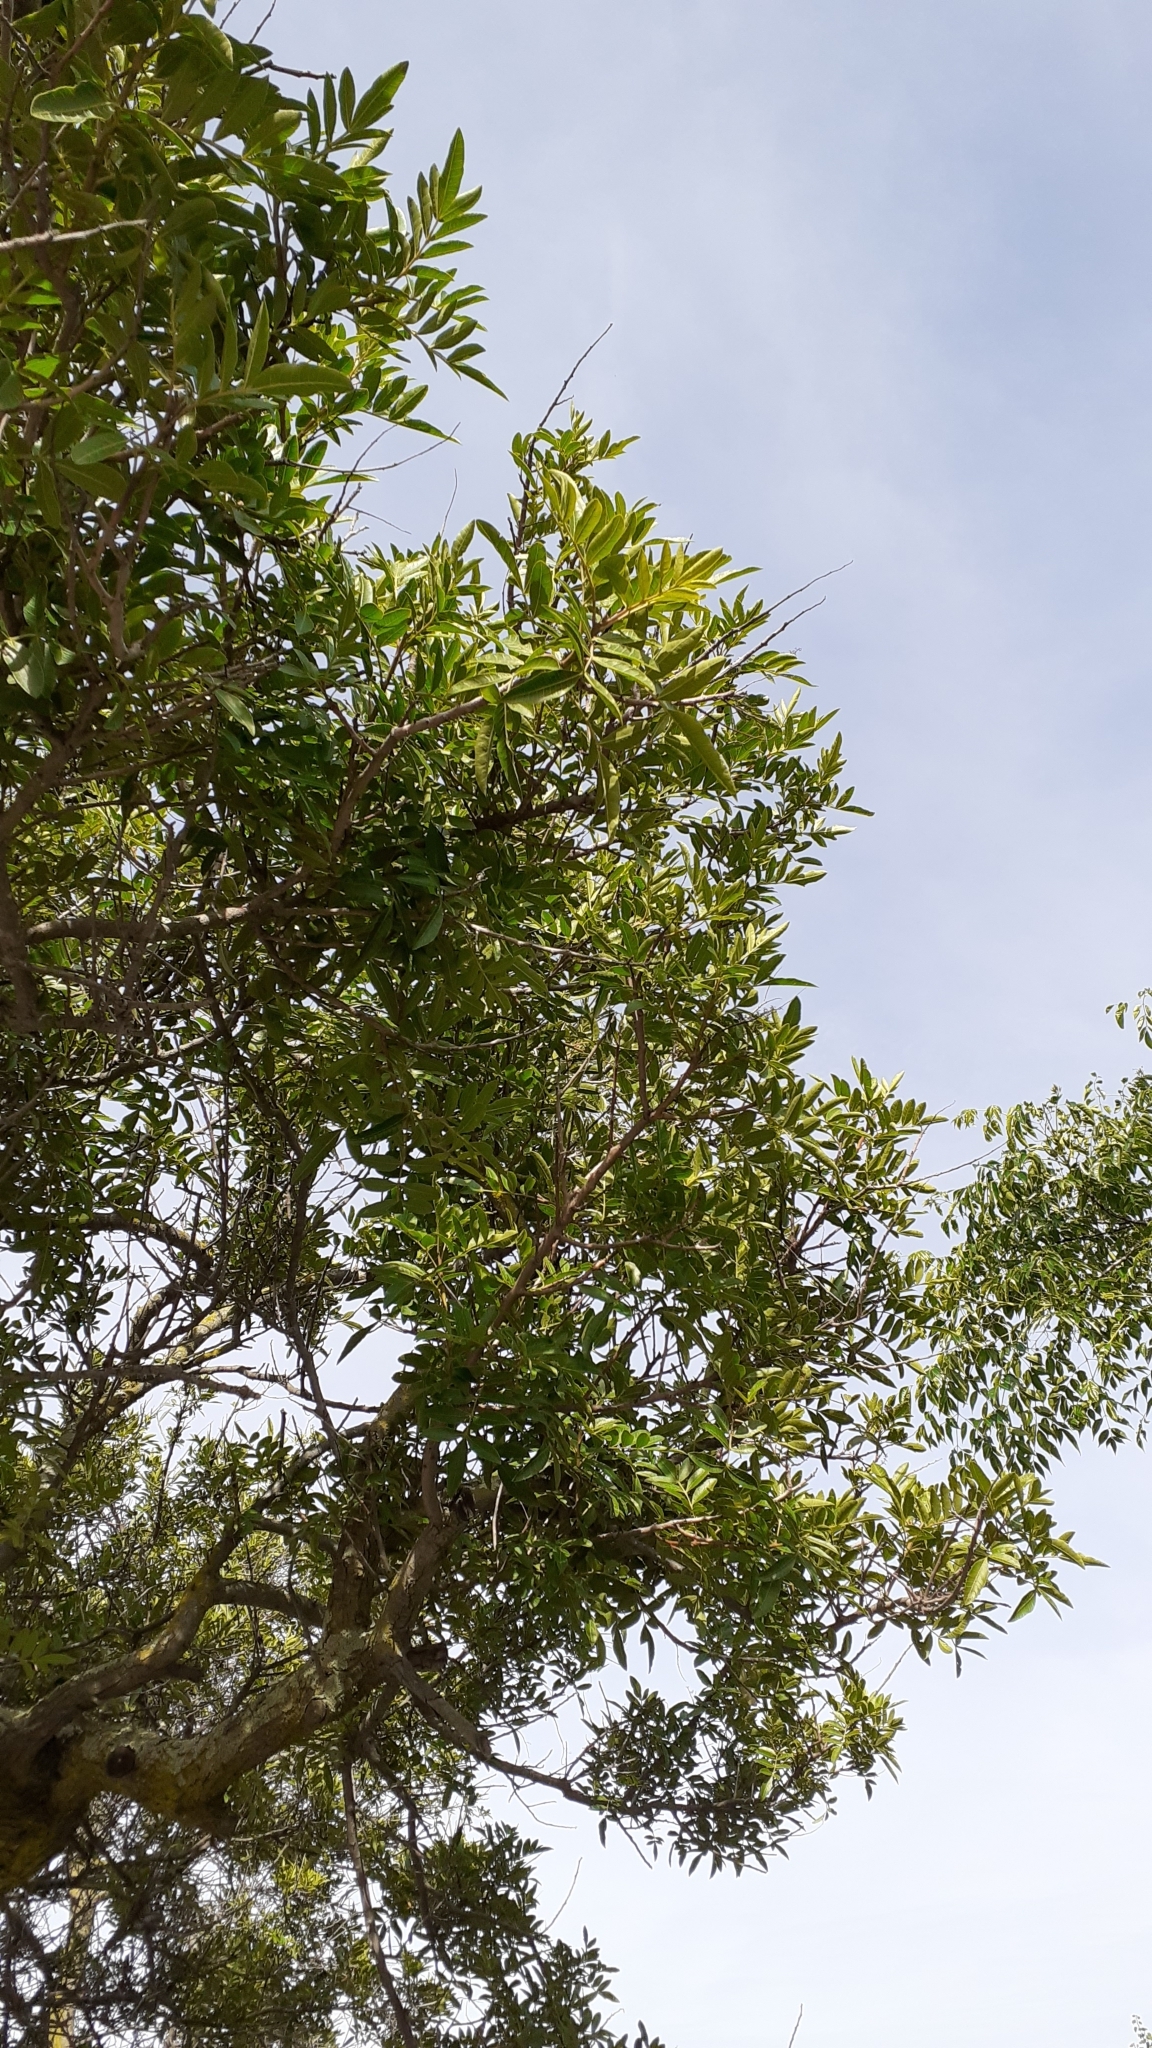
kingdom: Plantae
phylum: Tracheophyta
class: Magnoliopsida
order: Sapindales
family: Anacardiaceae
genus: Schinus
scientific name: Schinus terebinthifolia
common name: Brazilian peppertree
